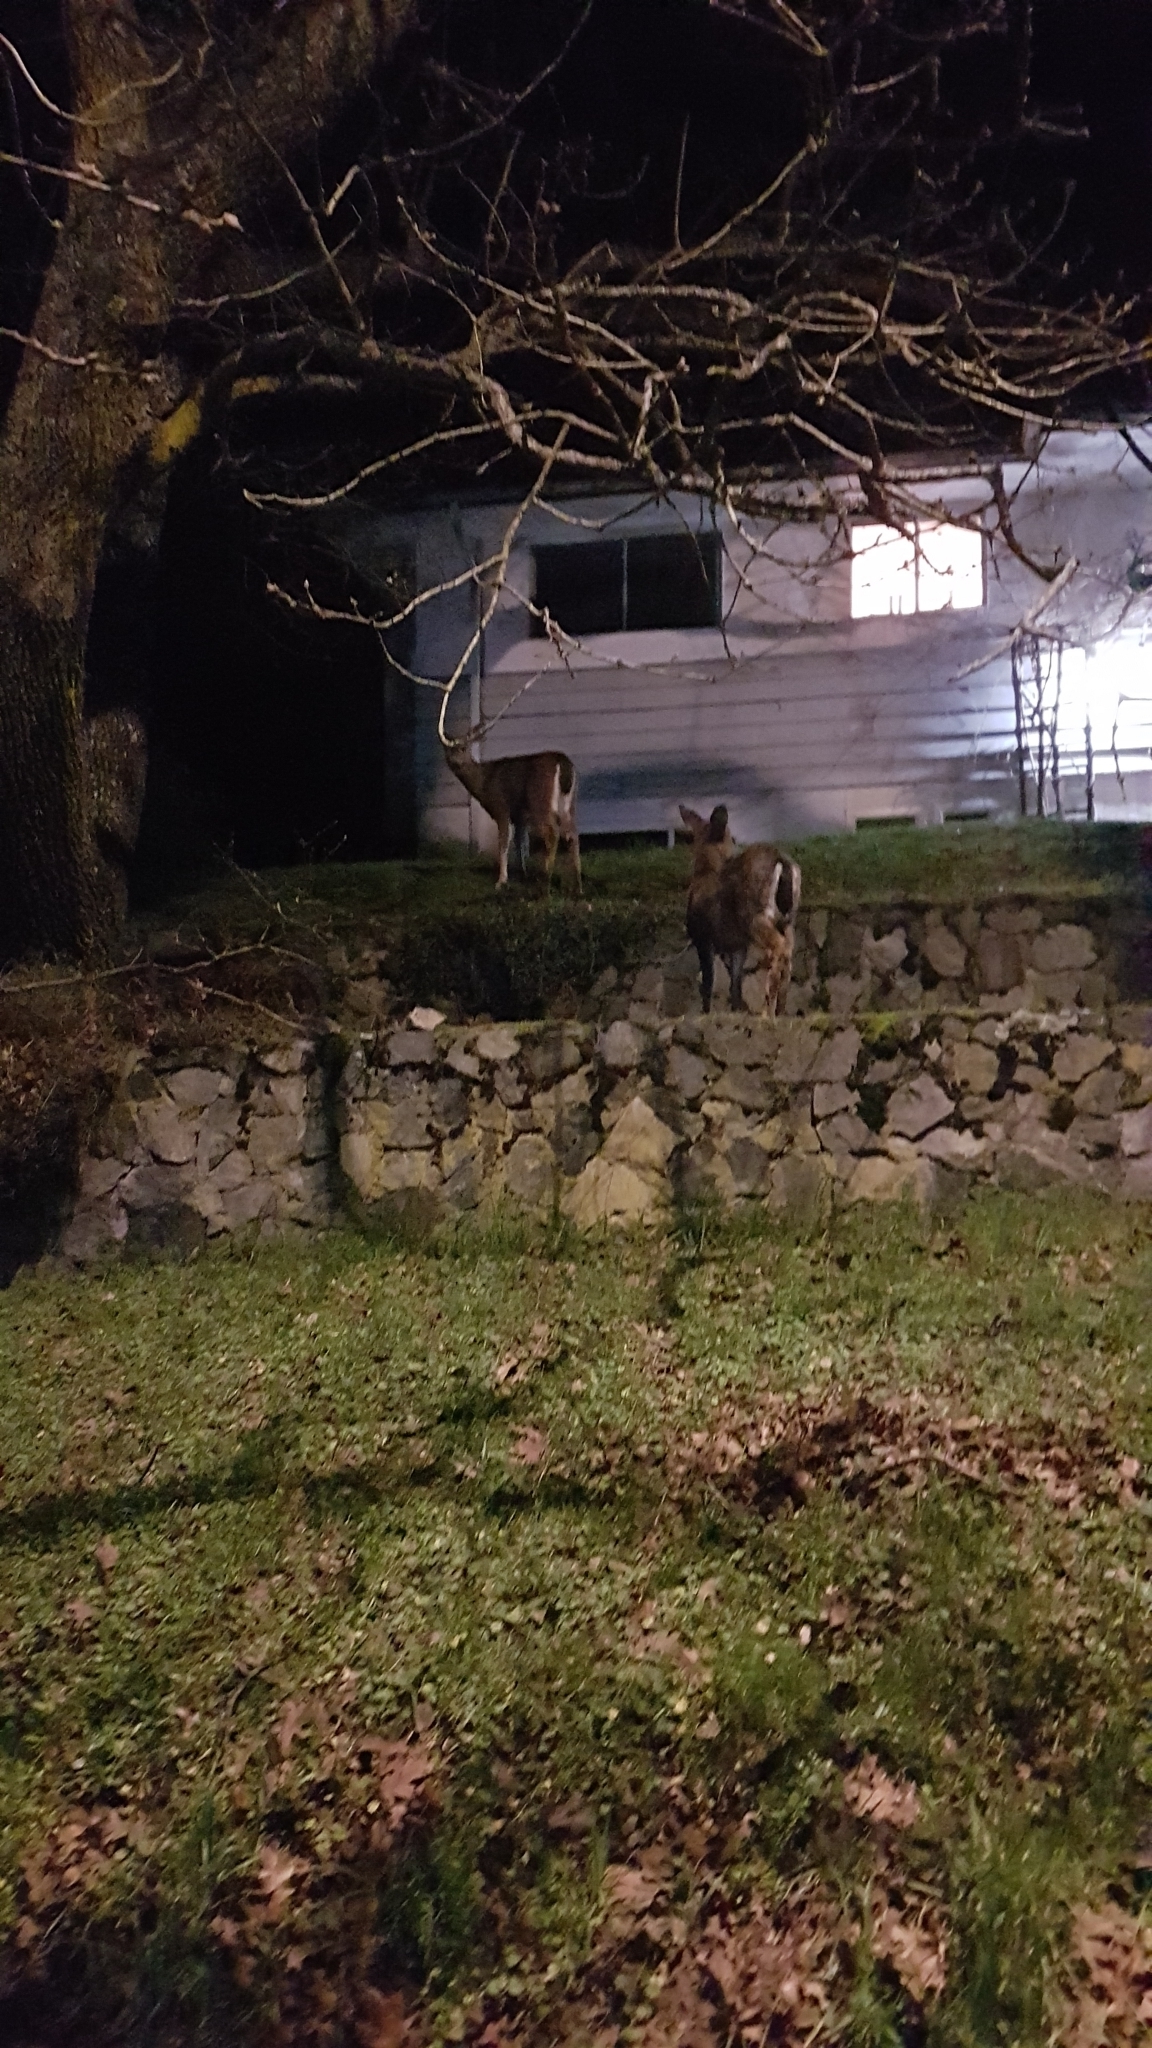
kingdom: Animalia
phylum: Chordata
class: Mammalia
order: Artiodactyla
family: Cervidae
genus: Odocoileus
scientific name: Odocoileus hemionus
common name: Mule deer
